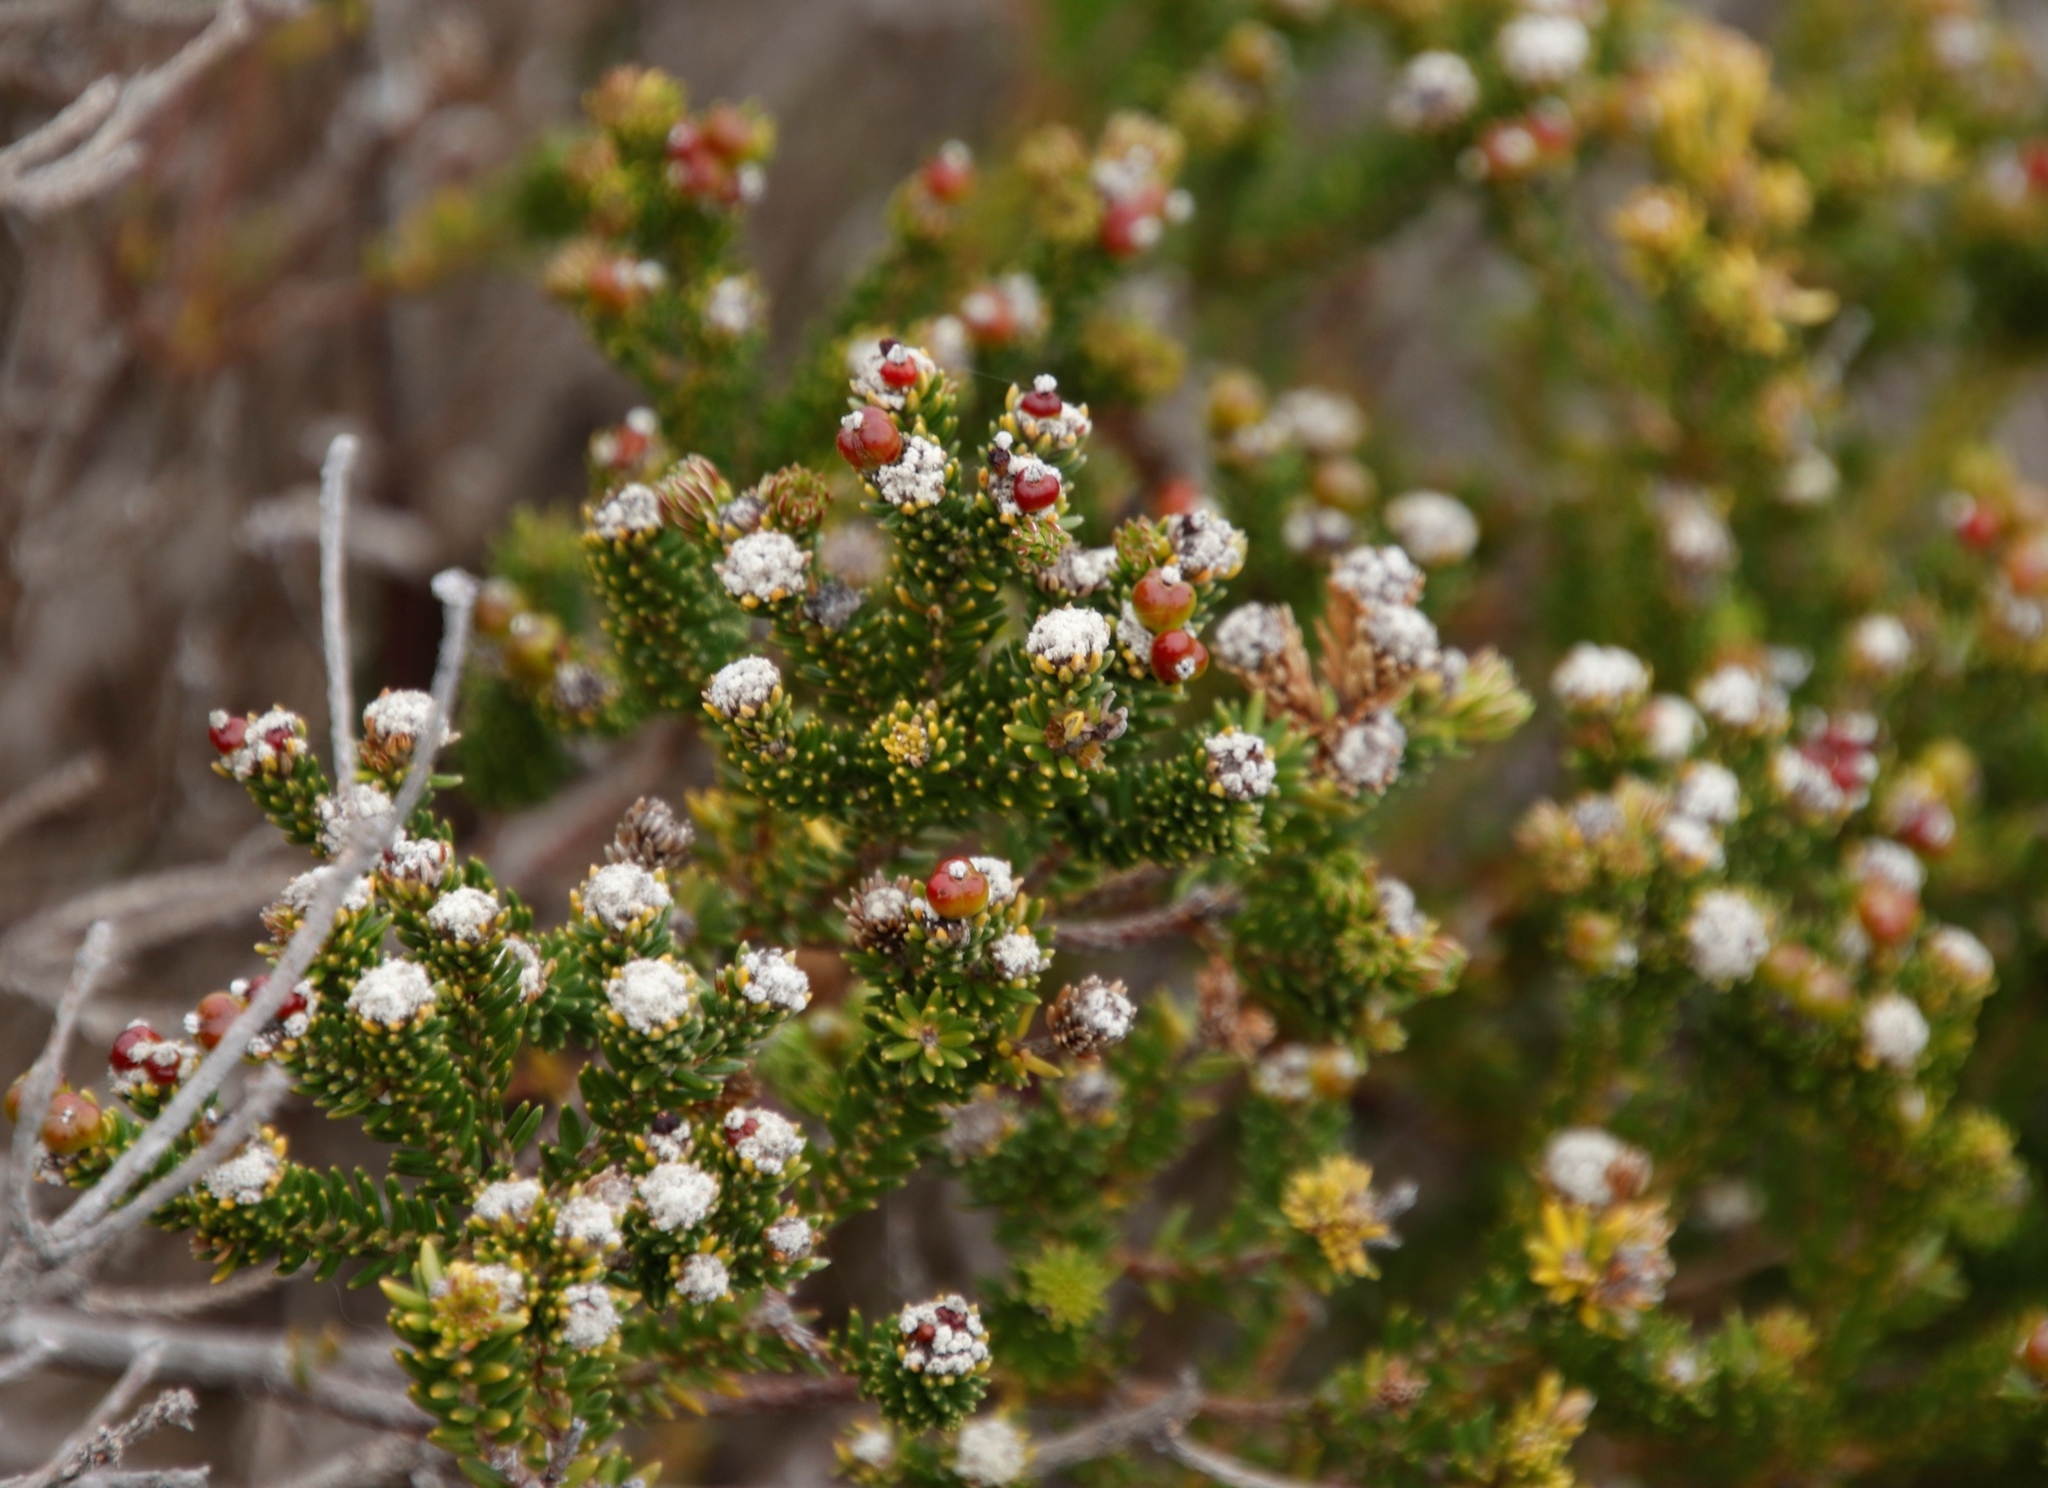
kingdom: Plantae
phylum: Tracheophyta
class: Magnoliopsida
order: Rosales
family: Rhamnaceae
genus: Phylica
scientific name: Phylica ericoides
